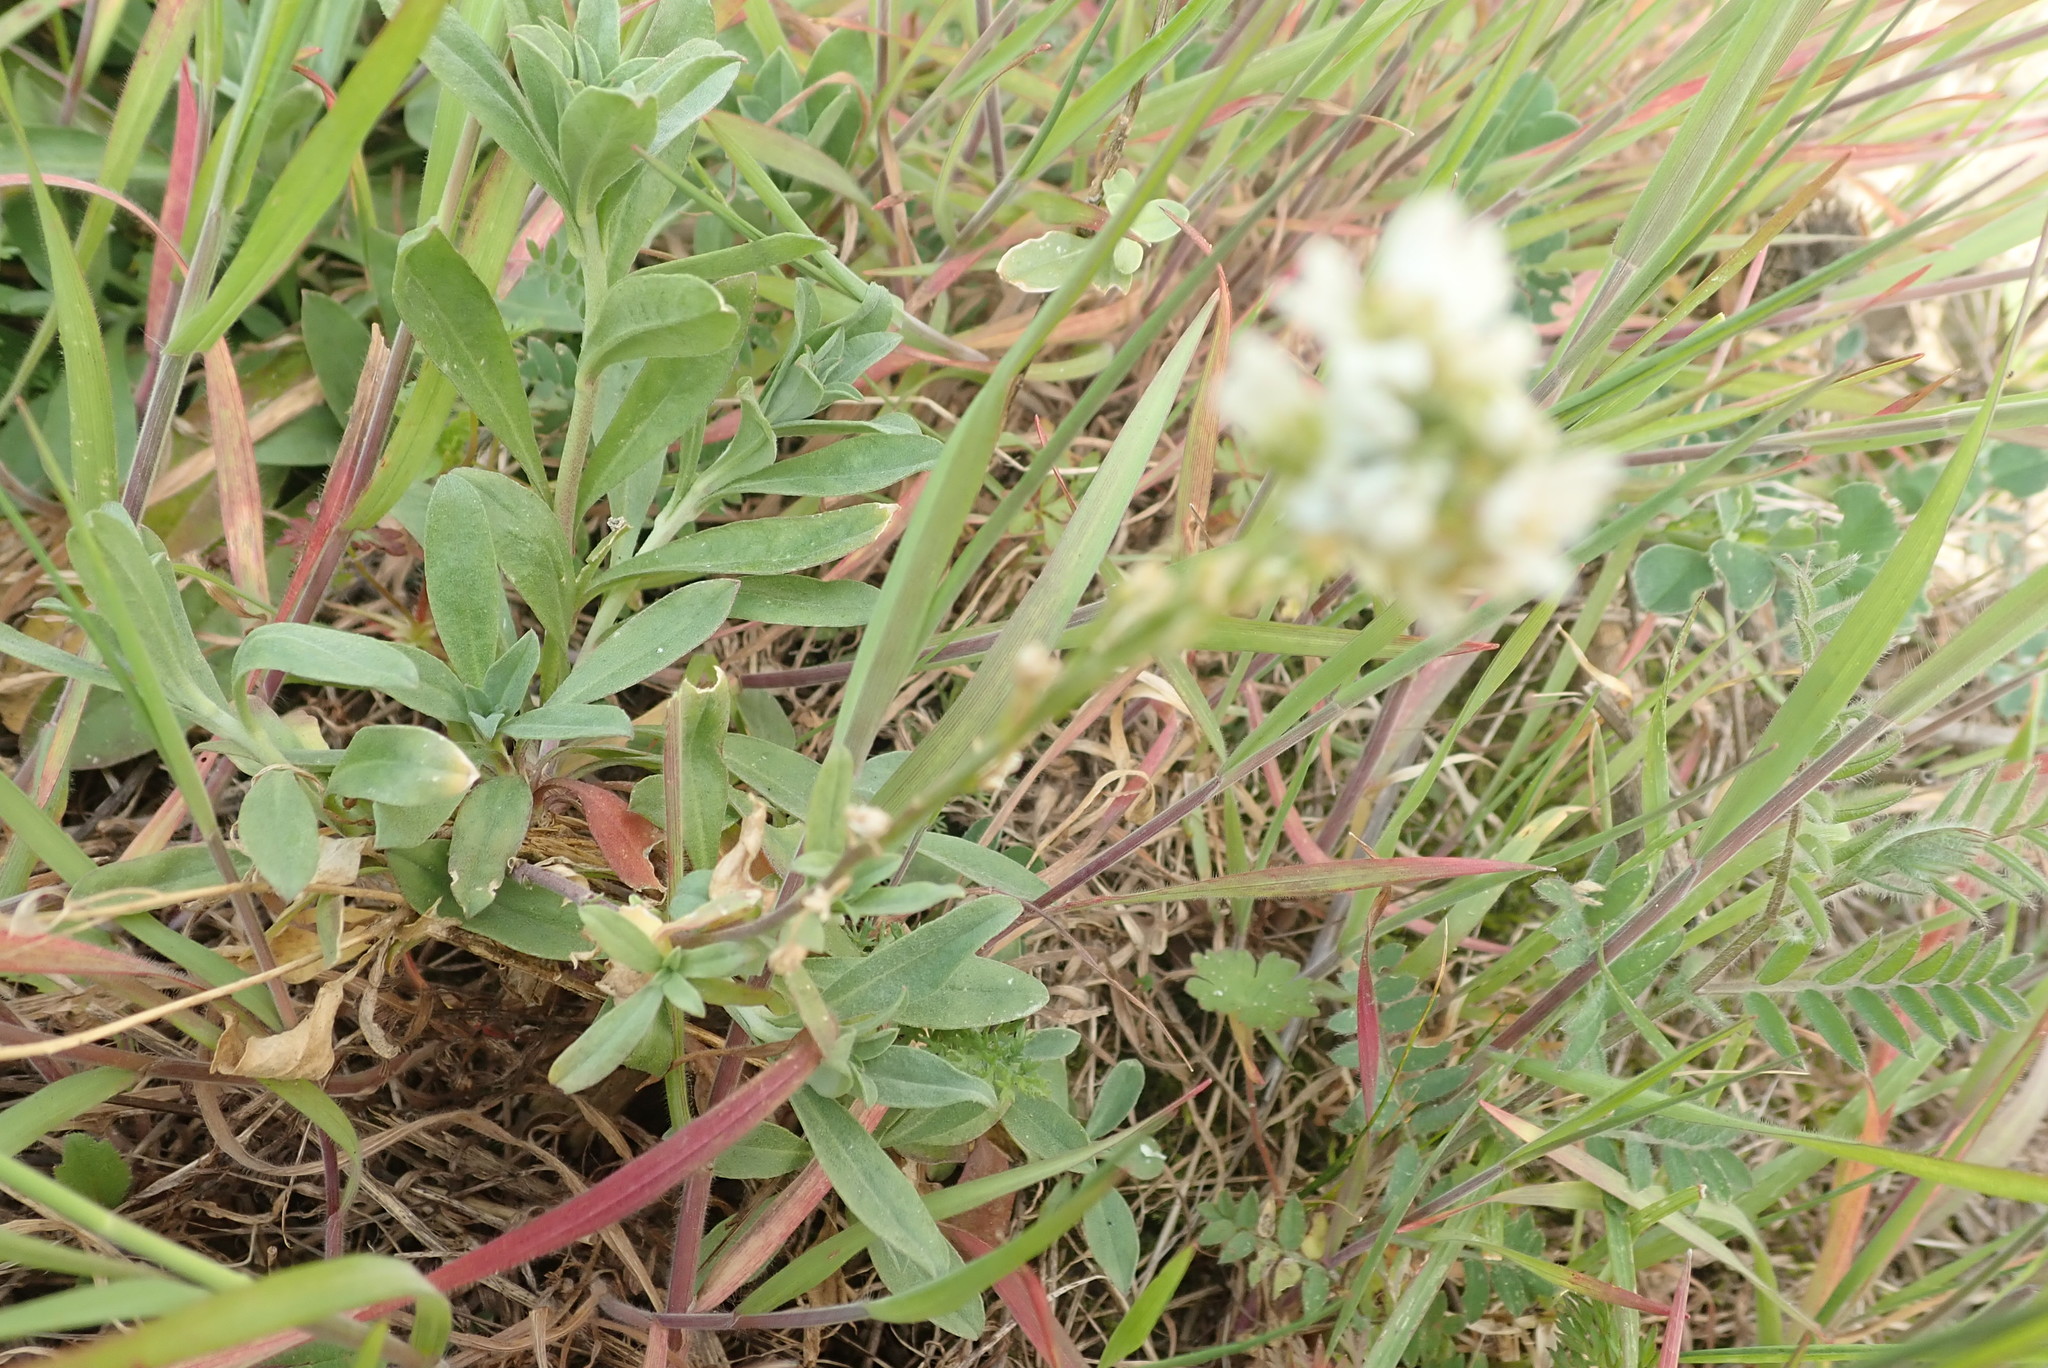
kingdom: Plantae
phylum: Tracheophyta
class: Magnoliopsida
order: Brassicales
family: Brassicaceae
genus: Berteroa
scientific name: Berteroa incana
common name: Hoary alison
